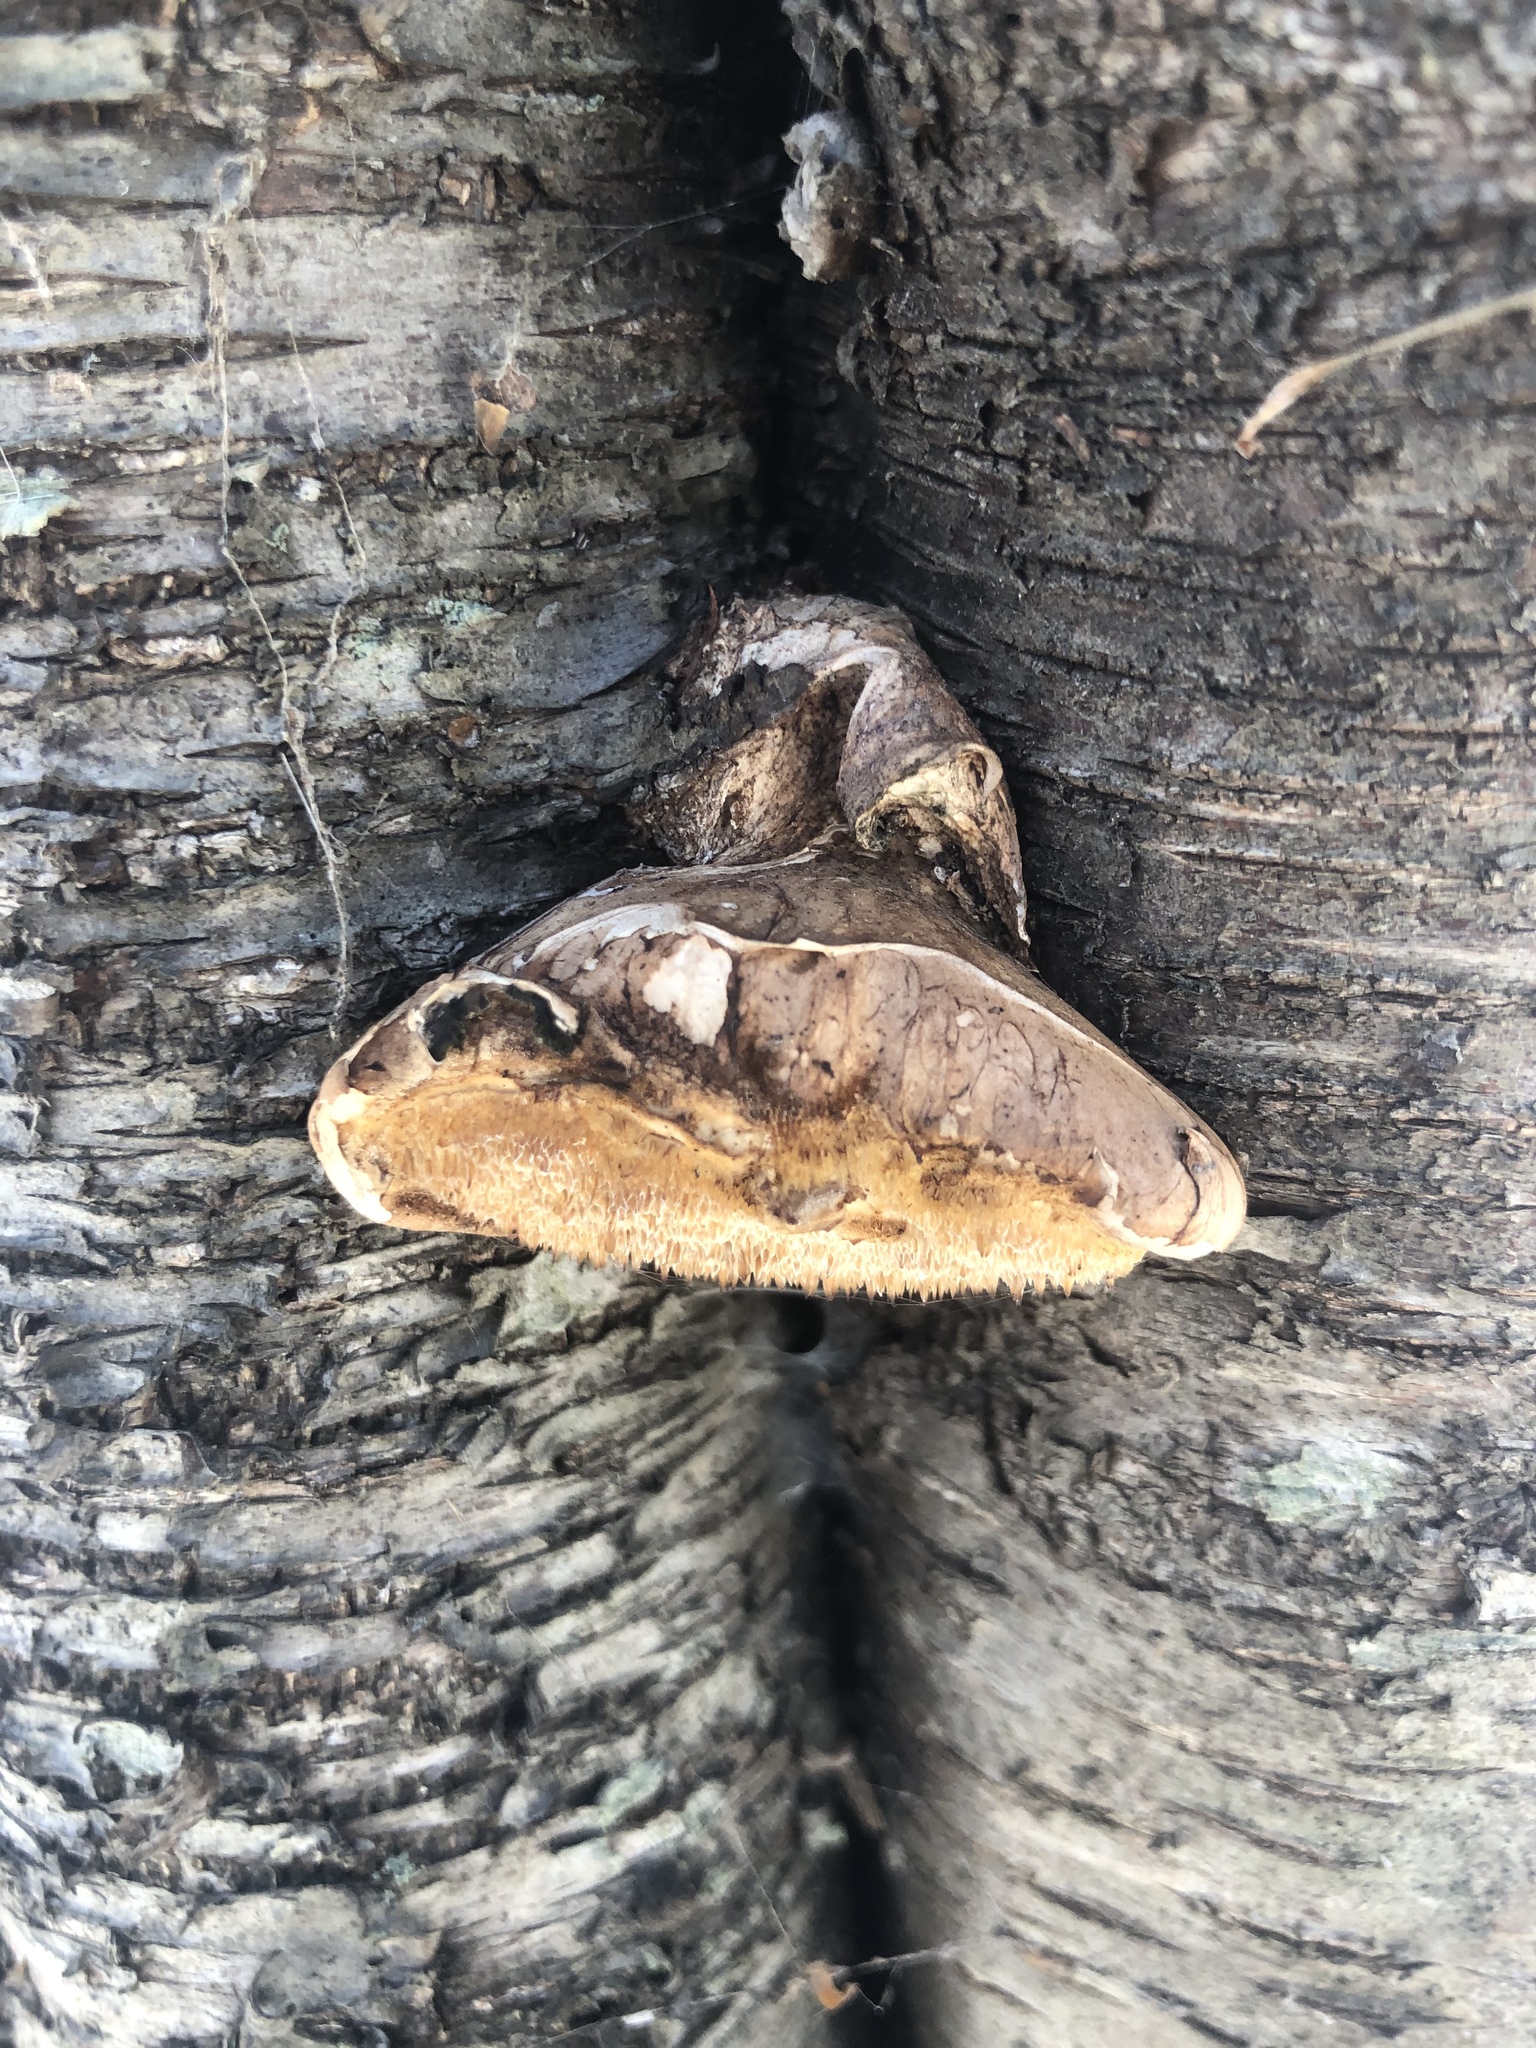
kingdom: Fungi
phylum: Basidiomycota
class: Agaricomycetes
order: Polyporales
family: Fomitopsidaceae
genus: Fomitopsis
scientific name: Fomitopsis betulina
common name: Birch polypore
